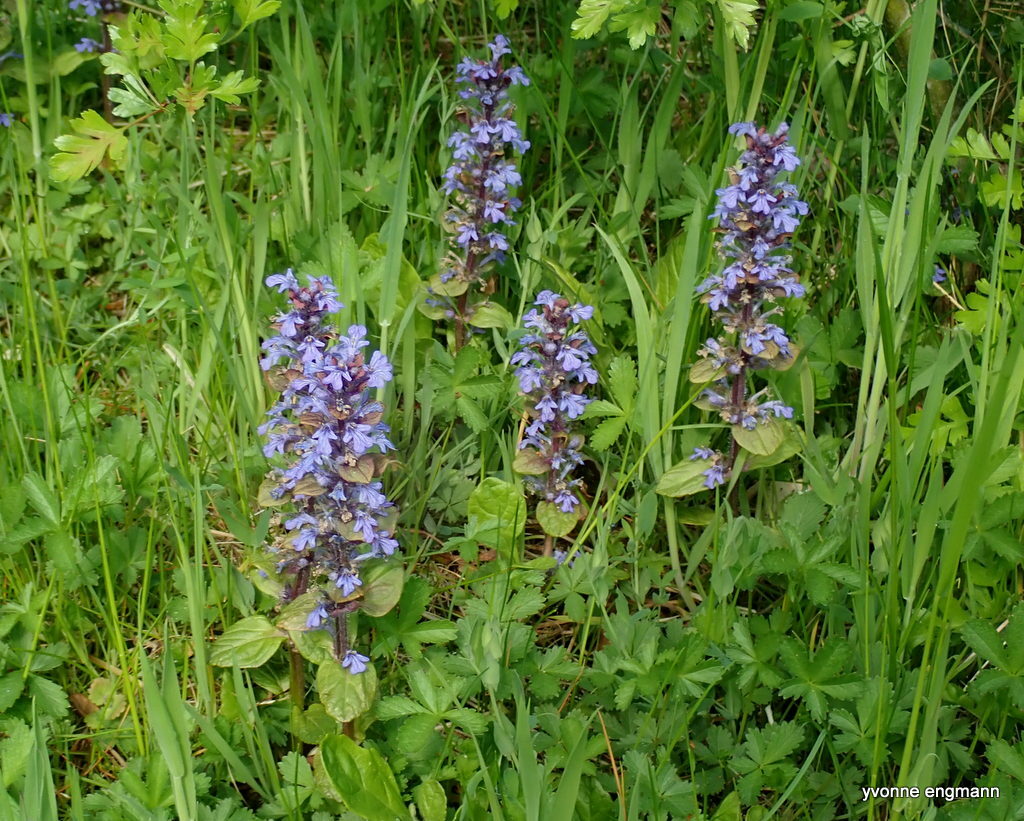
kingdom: Plantae
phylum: Tracheophyta
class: Magnoliopsida
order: Lamiales
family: Lamiaceae
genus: Ajuga
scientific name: Ajuga reptans
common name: Bugle
